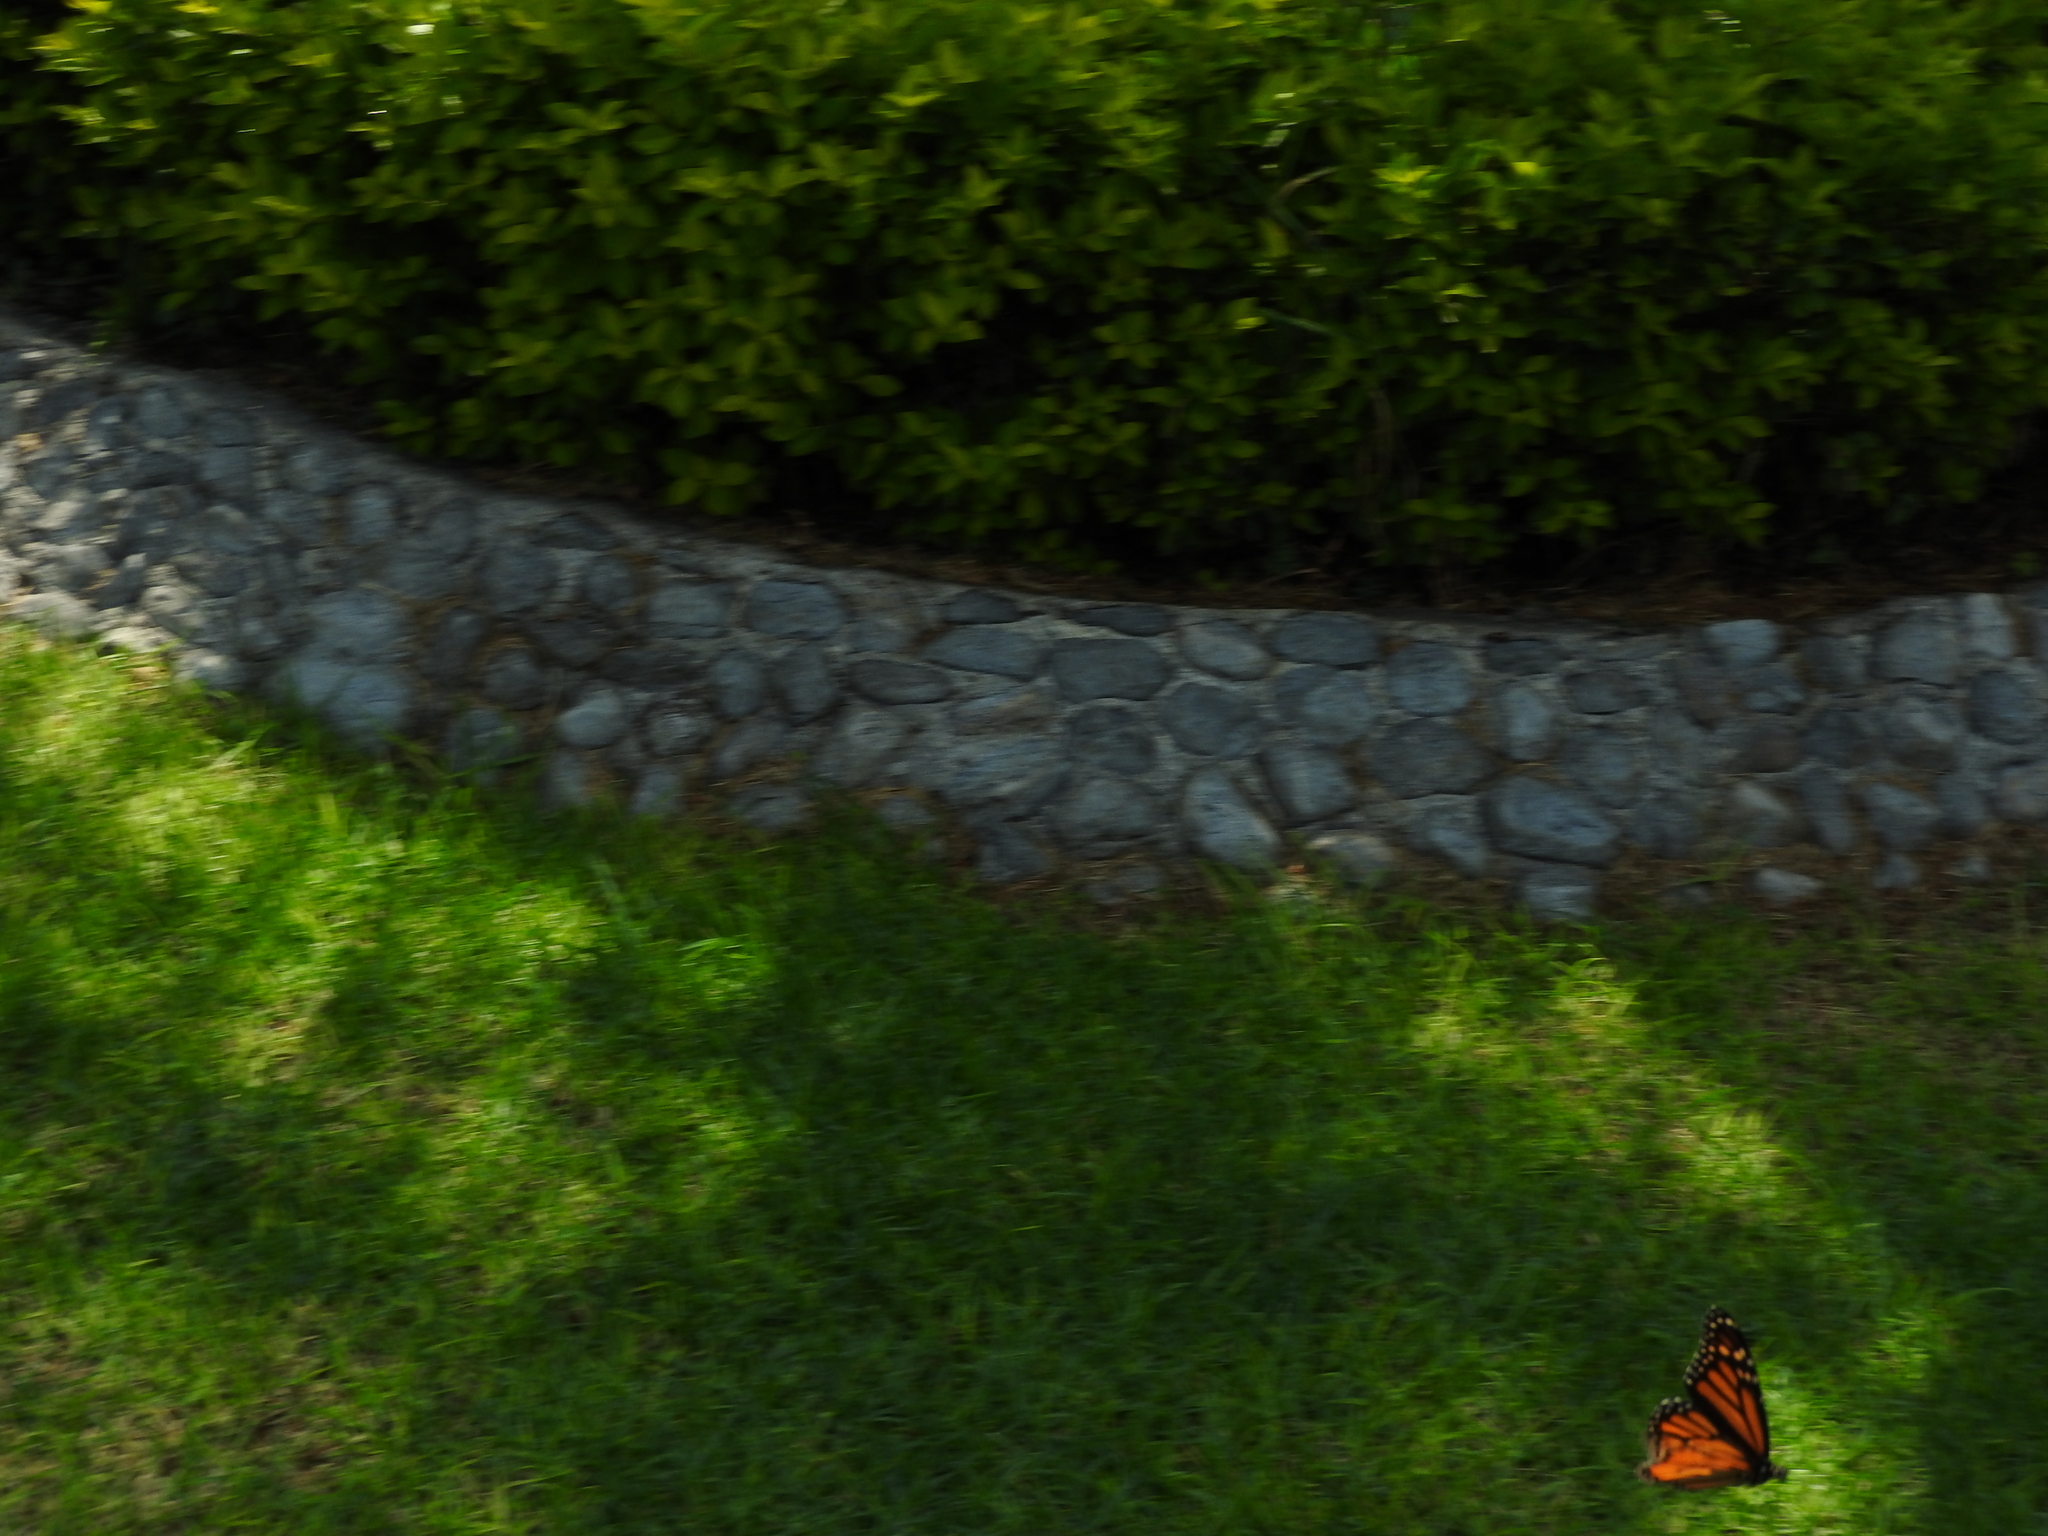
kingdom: Animalia
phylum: Arthropoda
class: Insecta
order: Lepidoptera
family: Nymphalidae
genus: Danaus
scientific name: Danaus plexippus
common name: Monarch
